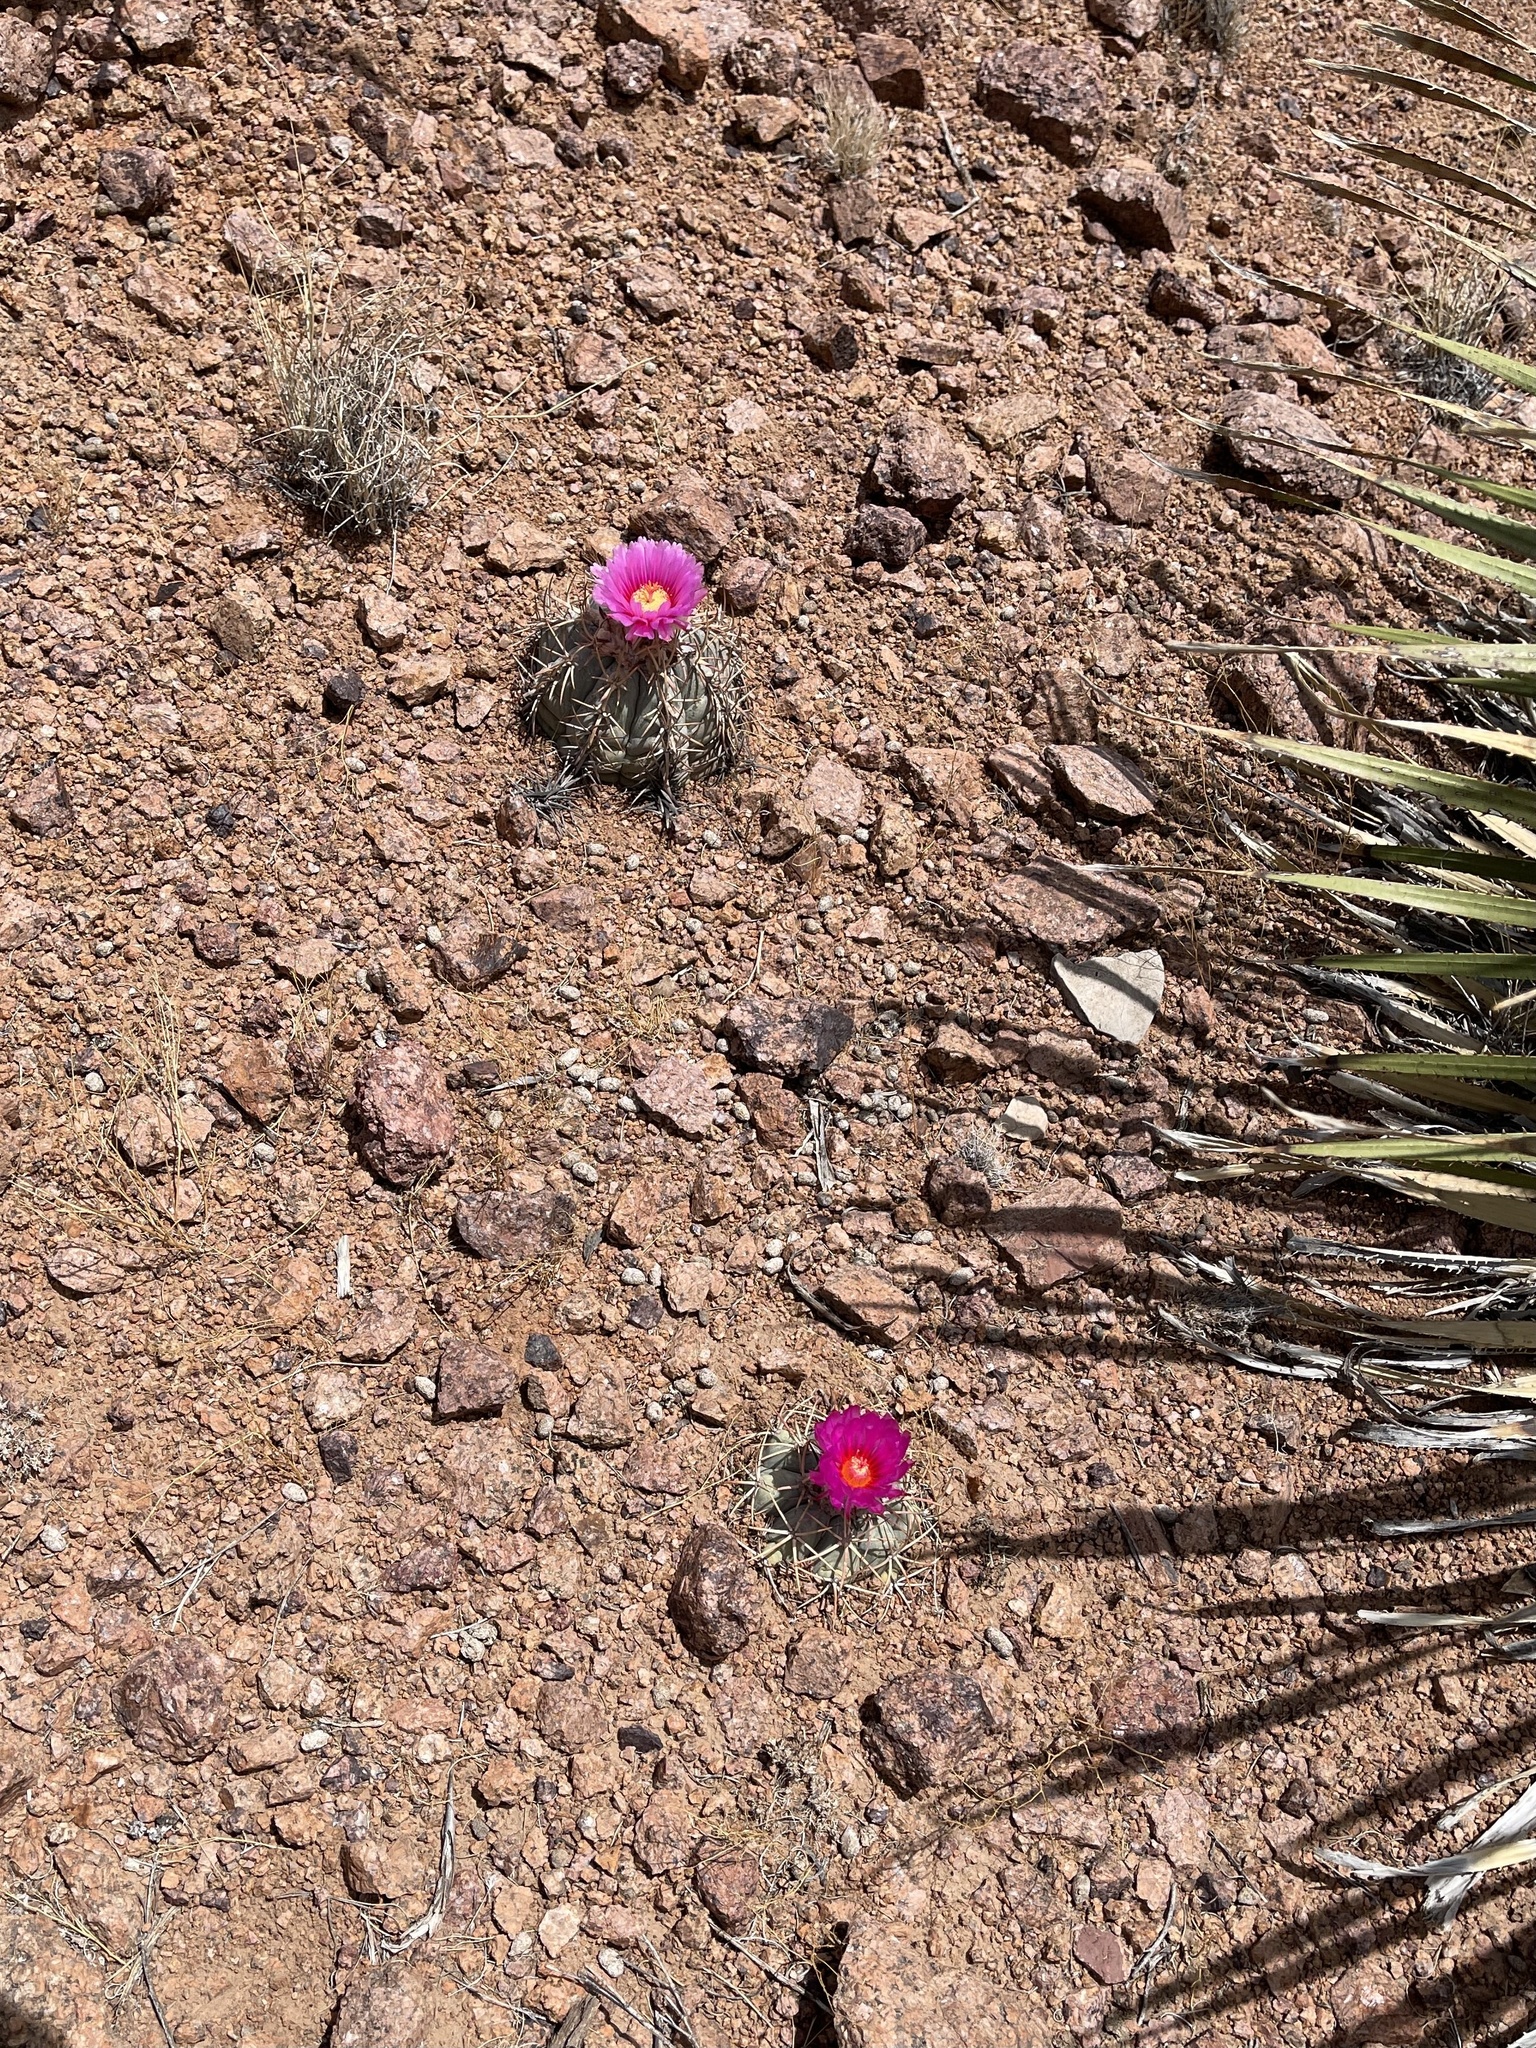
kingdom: Plantae
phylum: Tracheophyta
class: Magnoliopsida
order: Caryophyllales
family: Cactaceae
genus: Echinocactus
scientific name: Echinocactus horizonthalonius
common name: Devilshead
